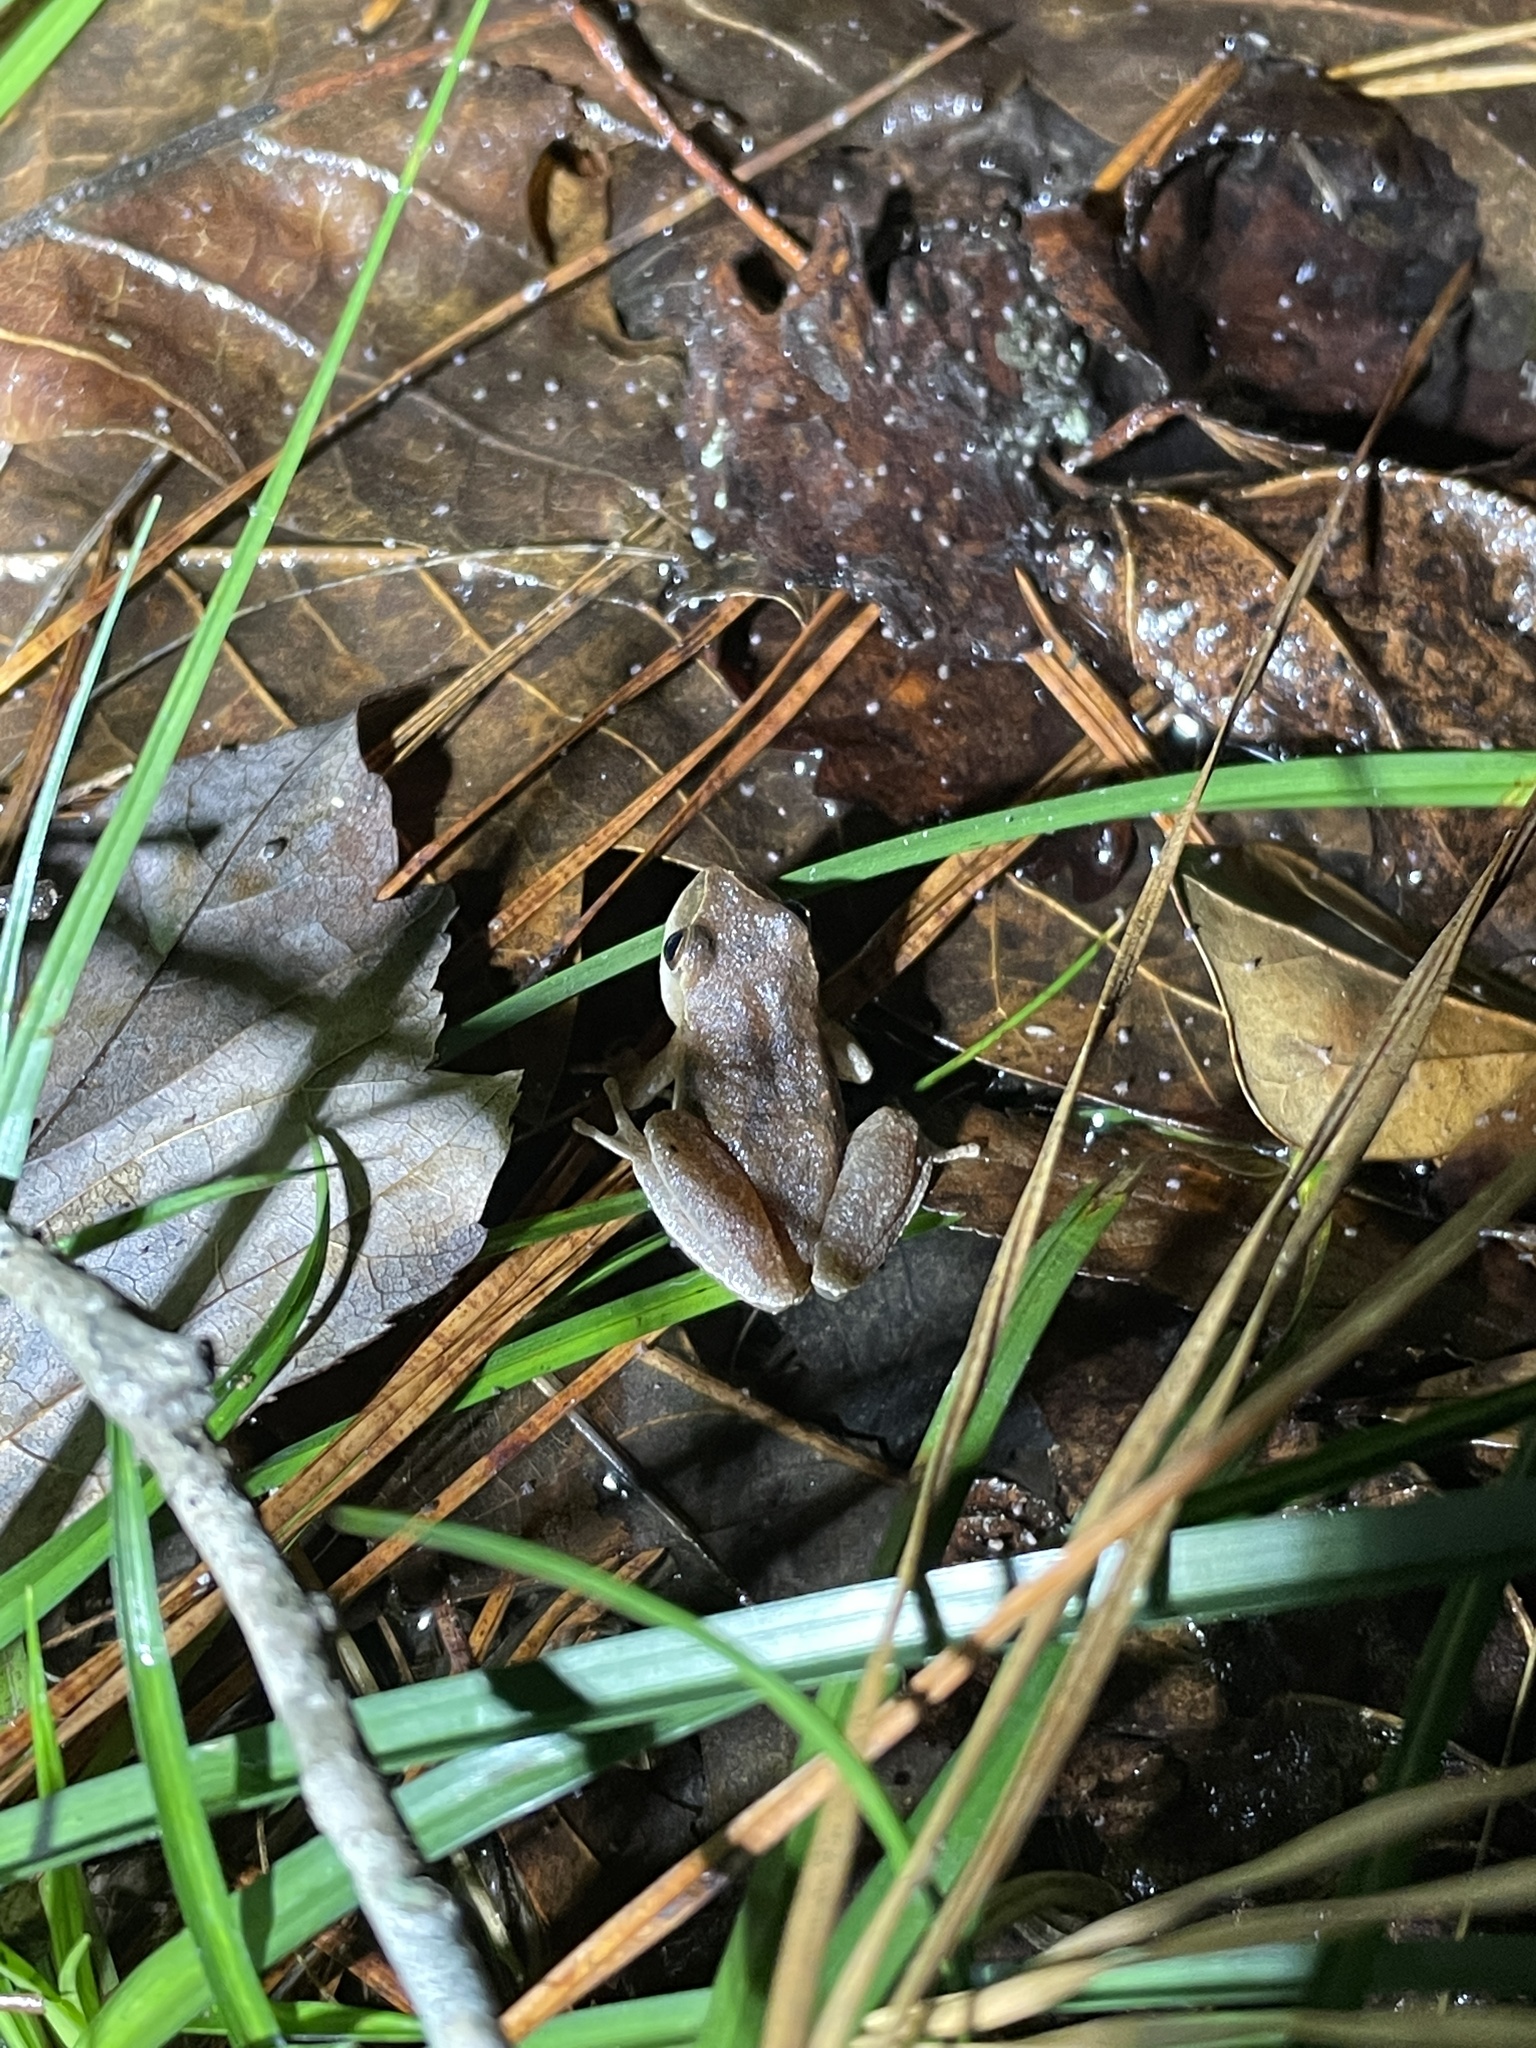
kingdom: Animalia
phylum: Chordata
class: Amphibia
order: Anura
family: Hylidae
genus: Pseudacris
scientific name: Pseudacris crucifer
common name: Spring peeper
